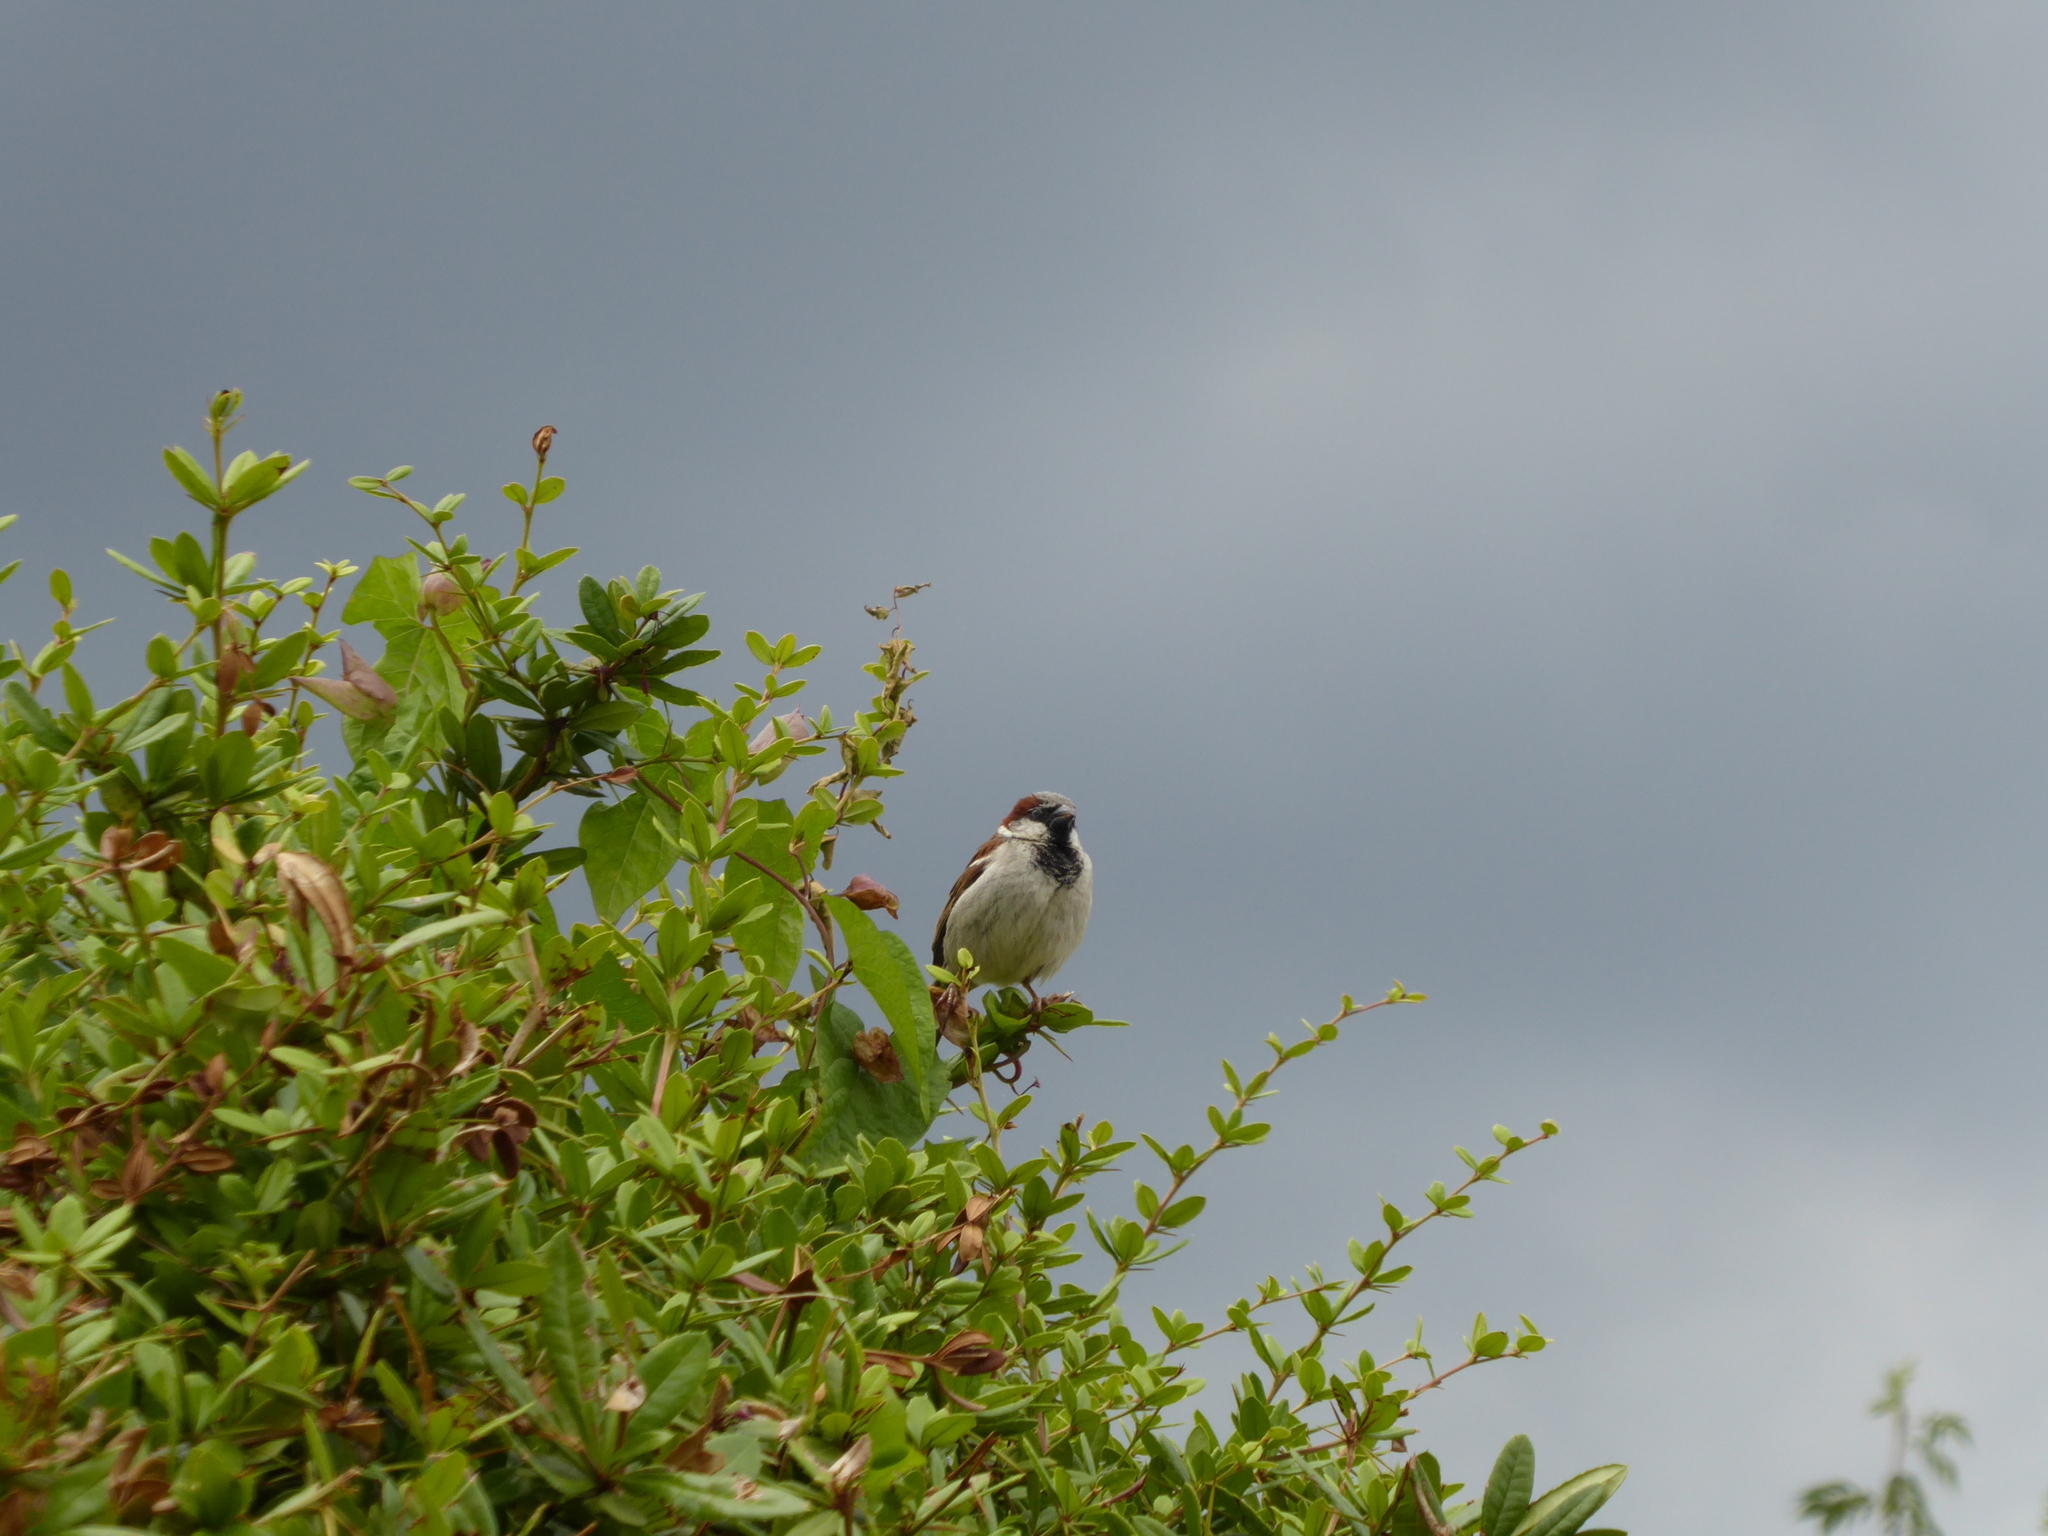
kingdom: Animalia
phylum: Chordata
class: Aves
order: Passeriformes
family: Passeridae
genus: Passer
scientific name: Passer domesticus
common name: House sparrow
